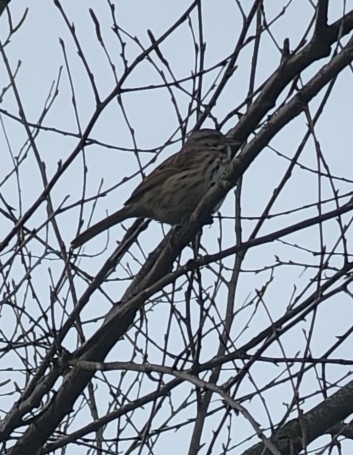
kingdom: Animalia
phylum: Chordata
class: Aves
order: Passeriformes
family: Passerellidae
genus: Melospiza
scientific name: Melospiza melodia
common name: Song sparrow
